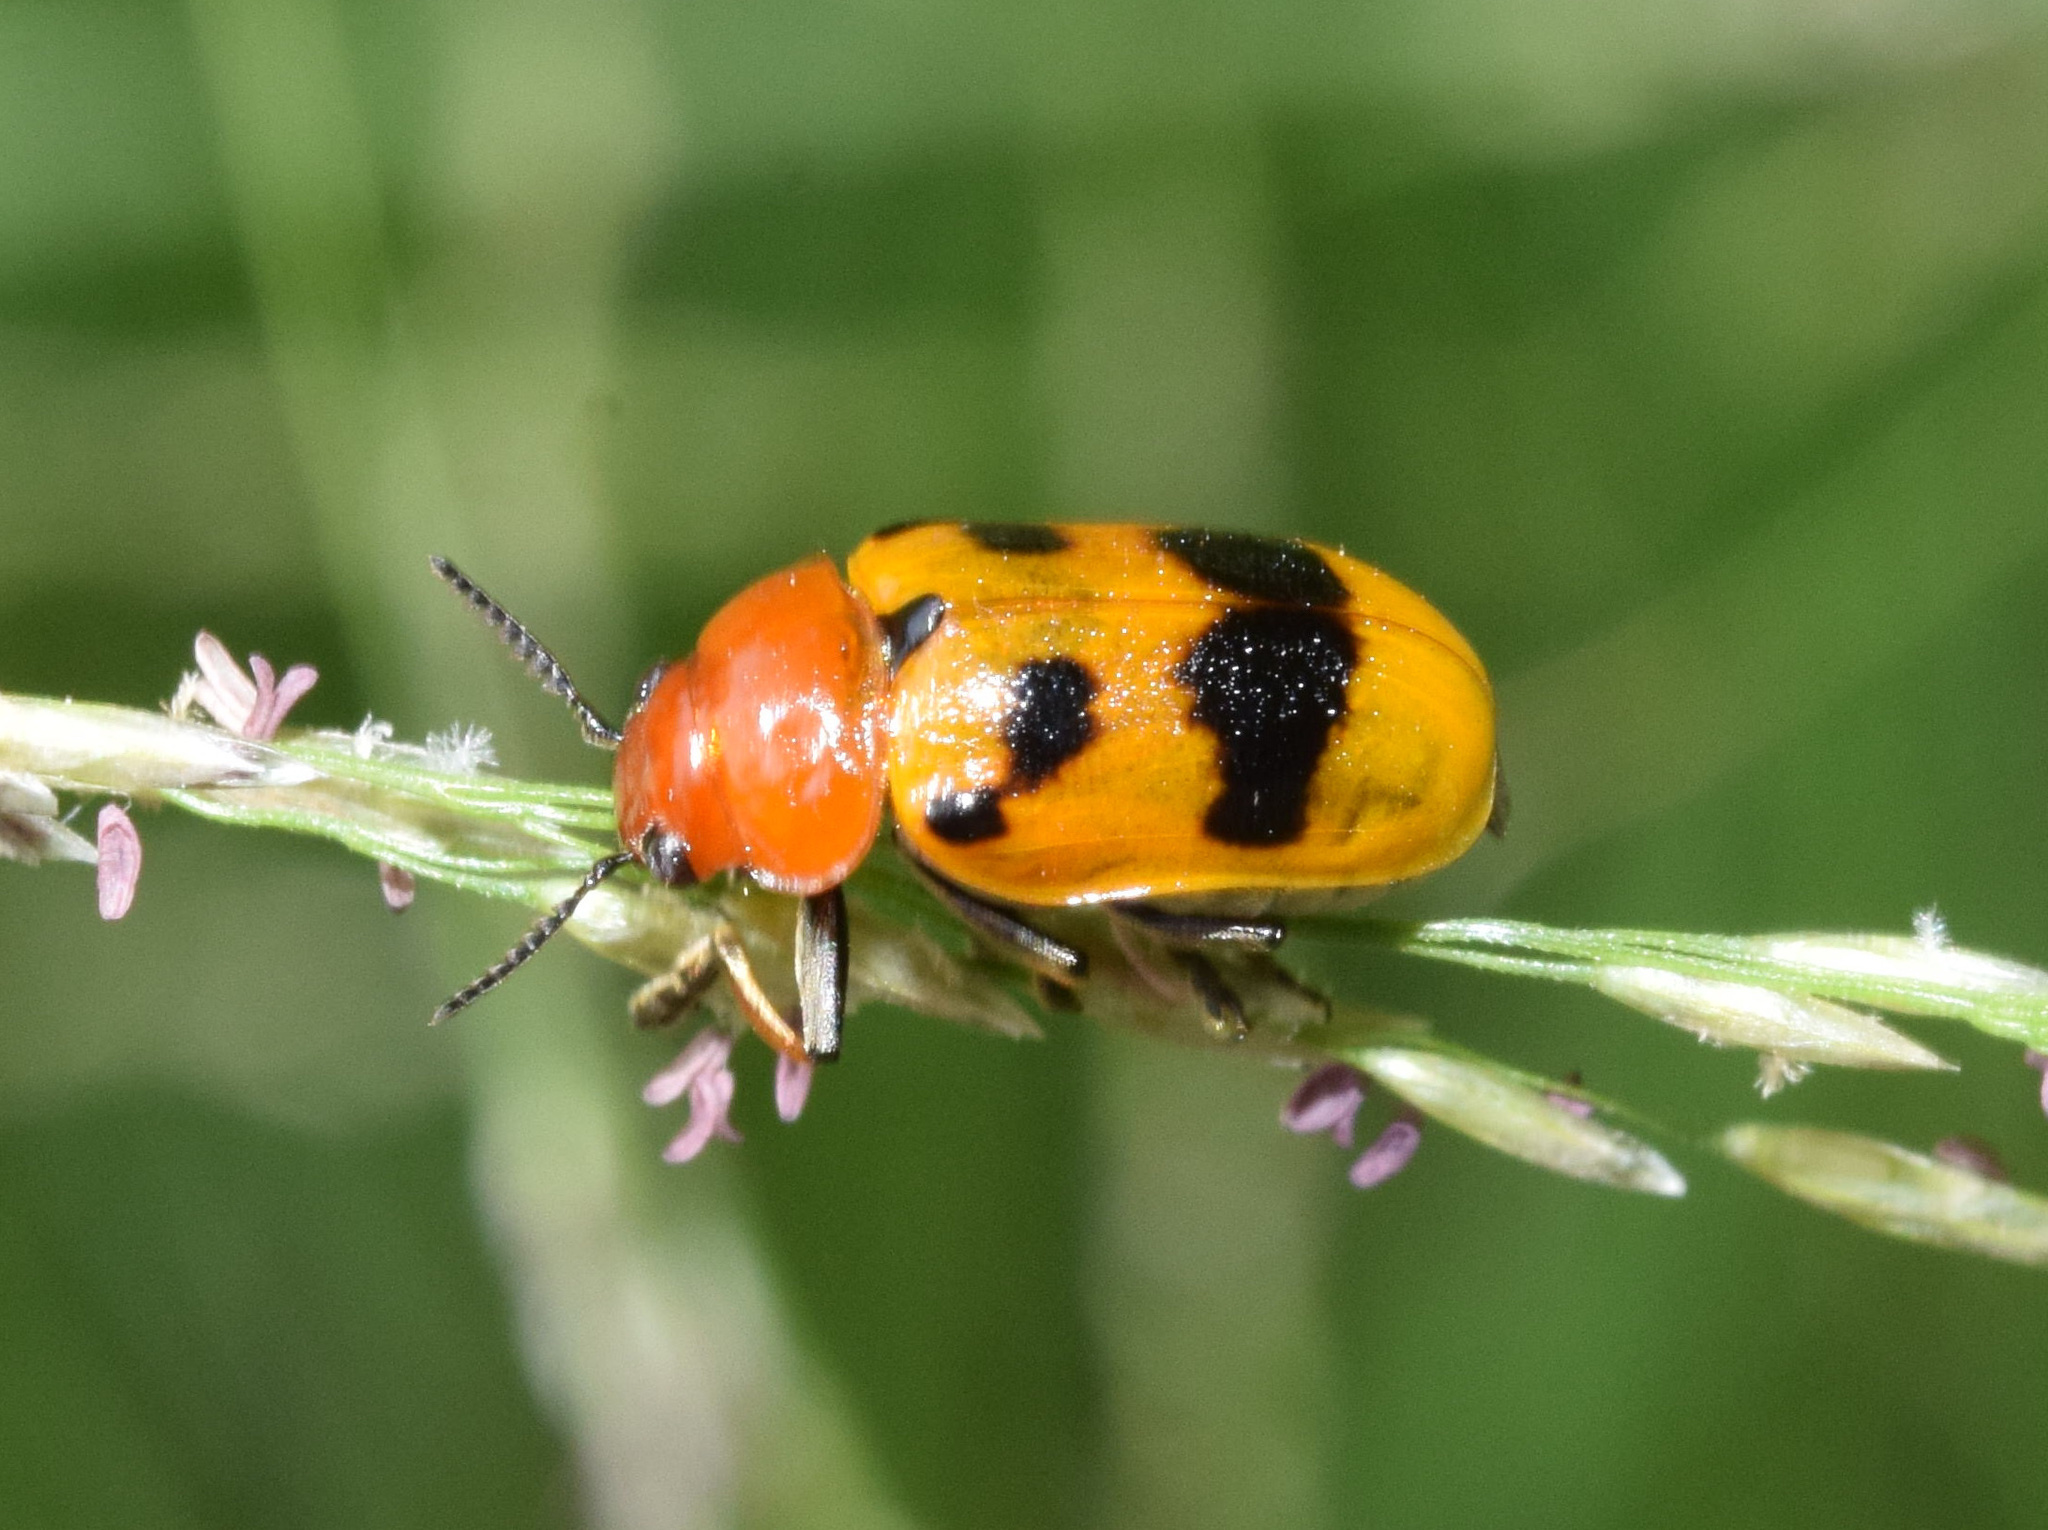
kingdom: Animalia
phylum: Arthropoda
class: Insecta
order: Coleoptera
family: Chrysomelidae
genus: Antipus
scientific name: Antipus rufus
